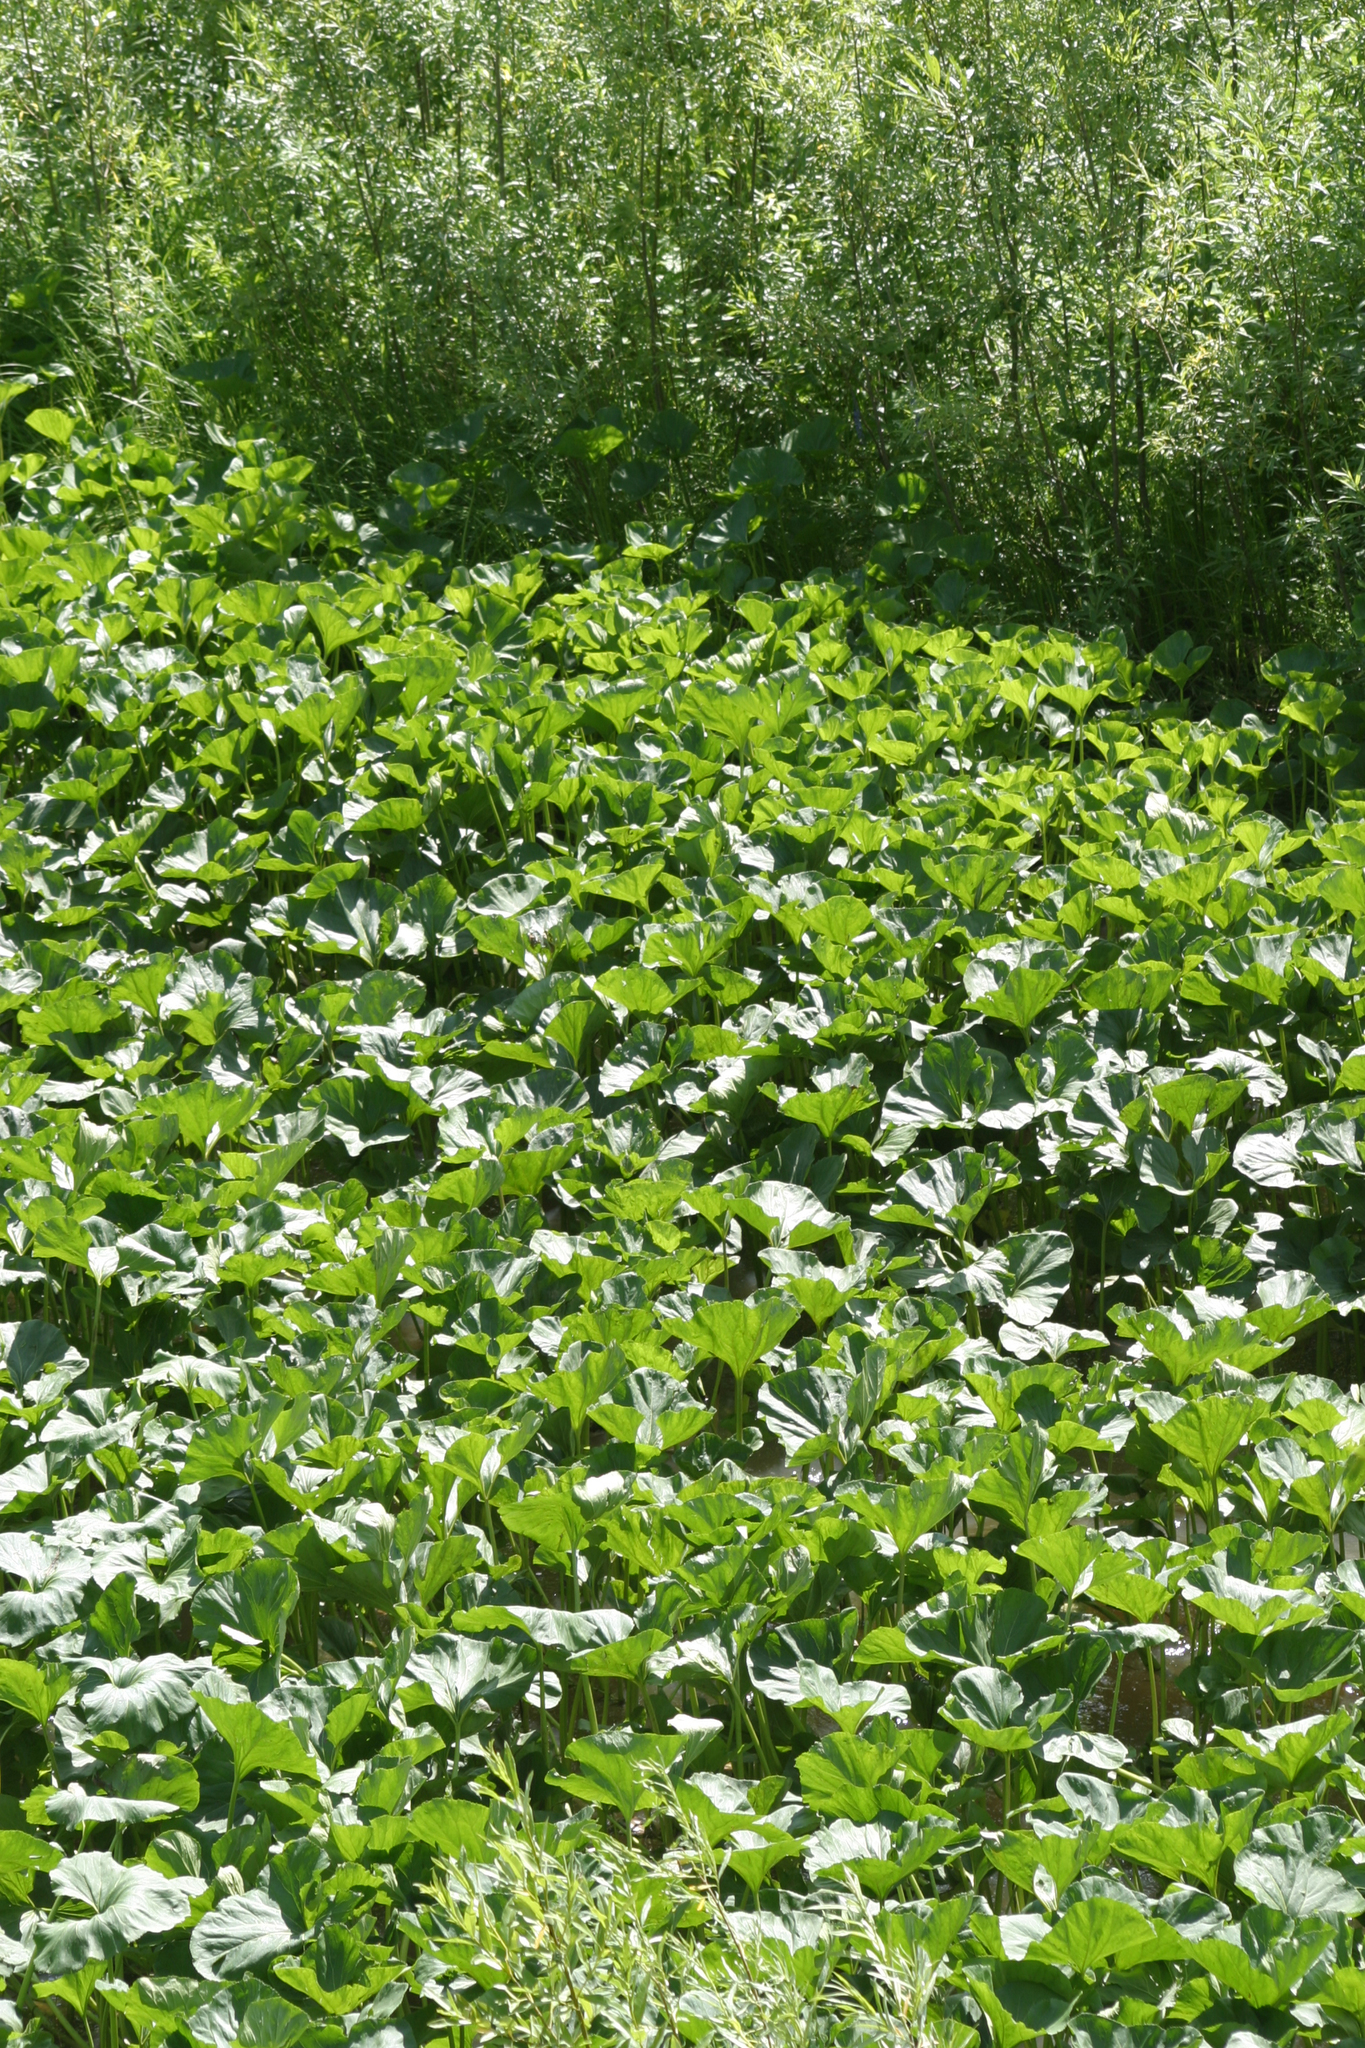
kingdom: Plantae
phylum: Tracheophyta
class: Magnoliopsida
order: Asterales
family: Asteraceae
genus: Petasites
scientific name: Petasites radiatus
